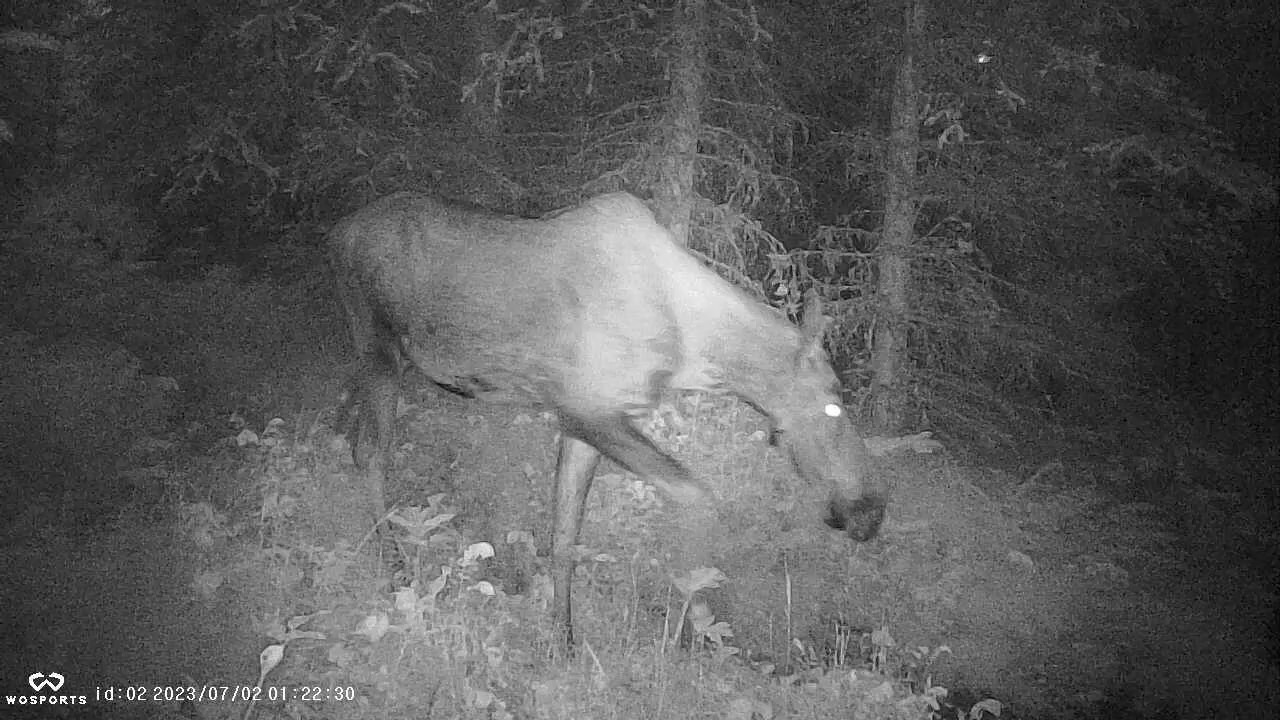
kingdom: Animalia
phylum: Chordata
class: Mammalia
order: Artiodactyla
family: Cervidae
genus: Alces
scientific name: Alces alces
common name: Moose
